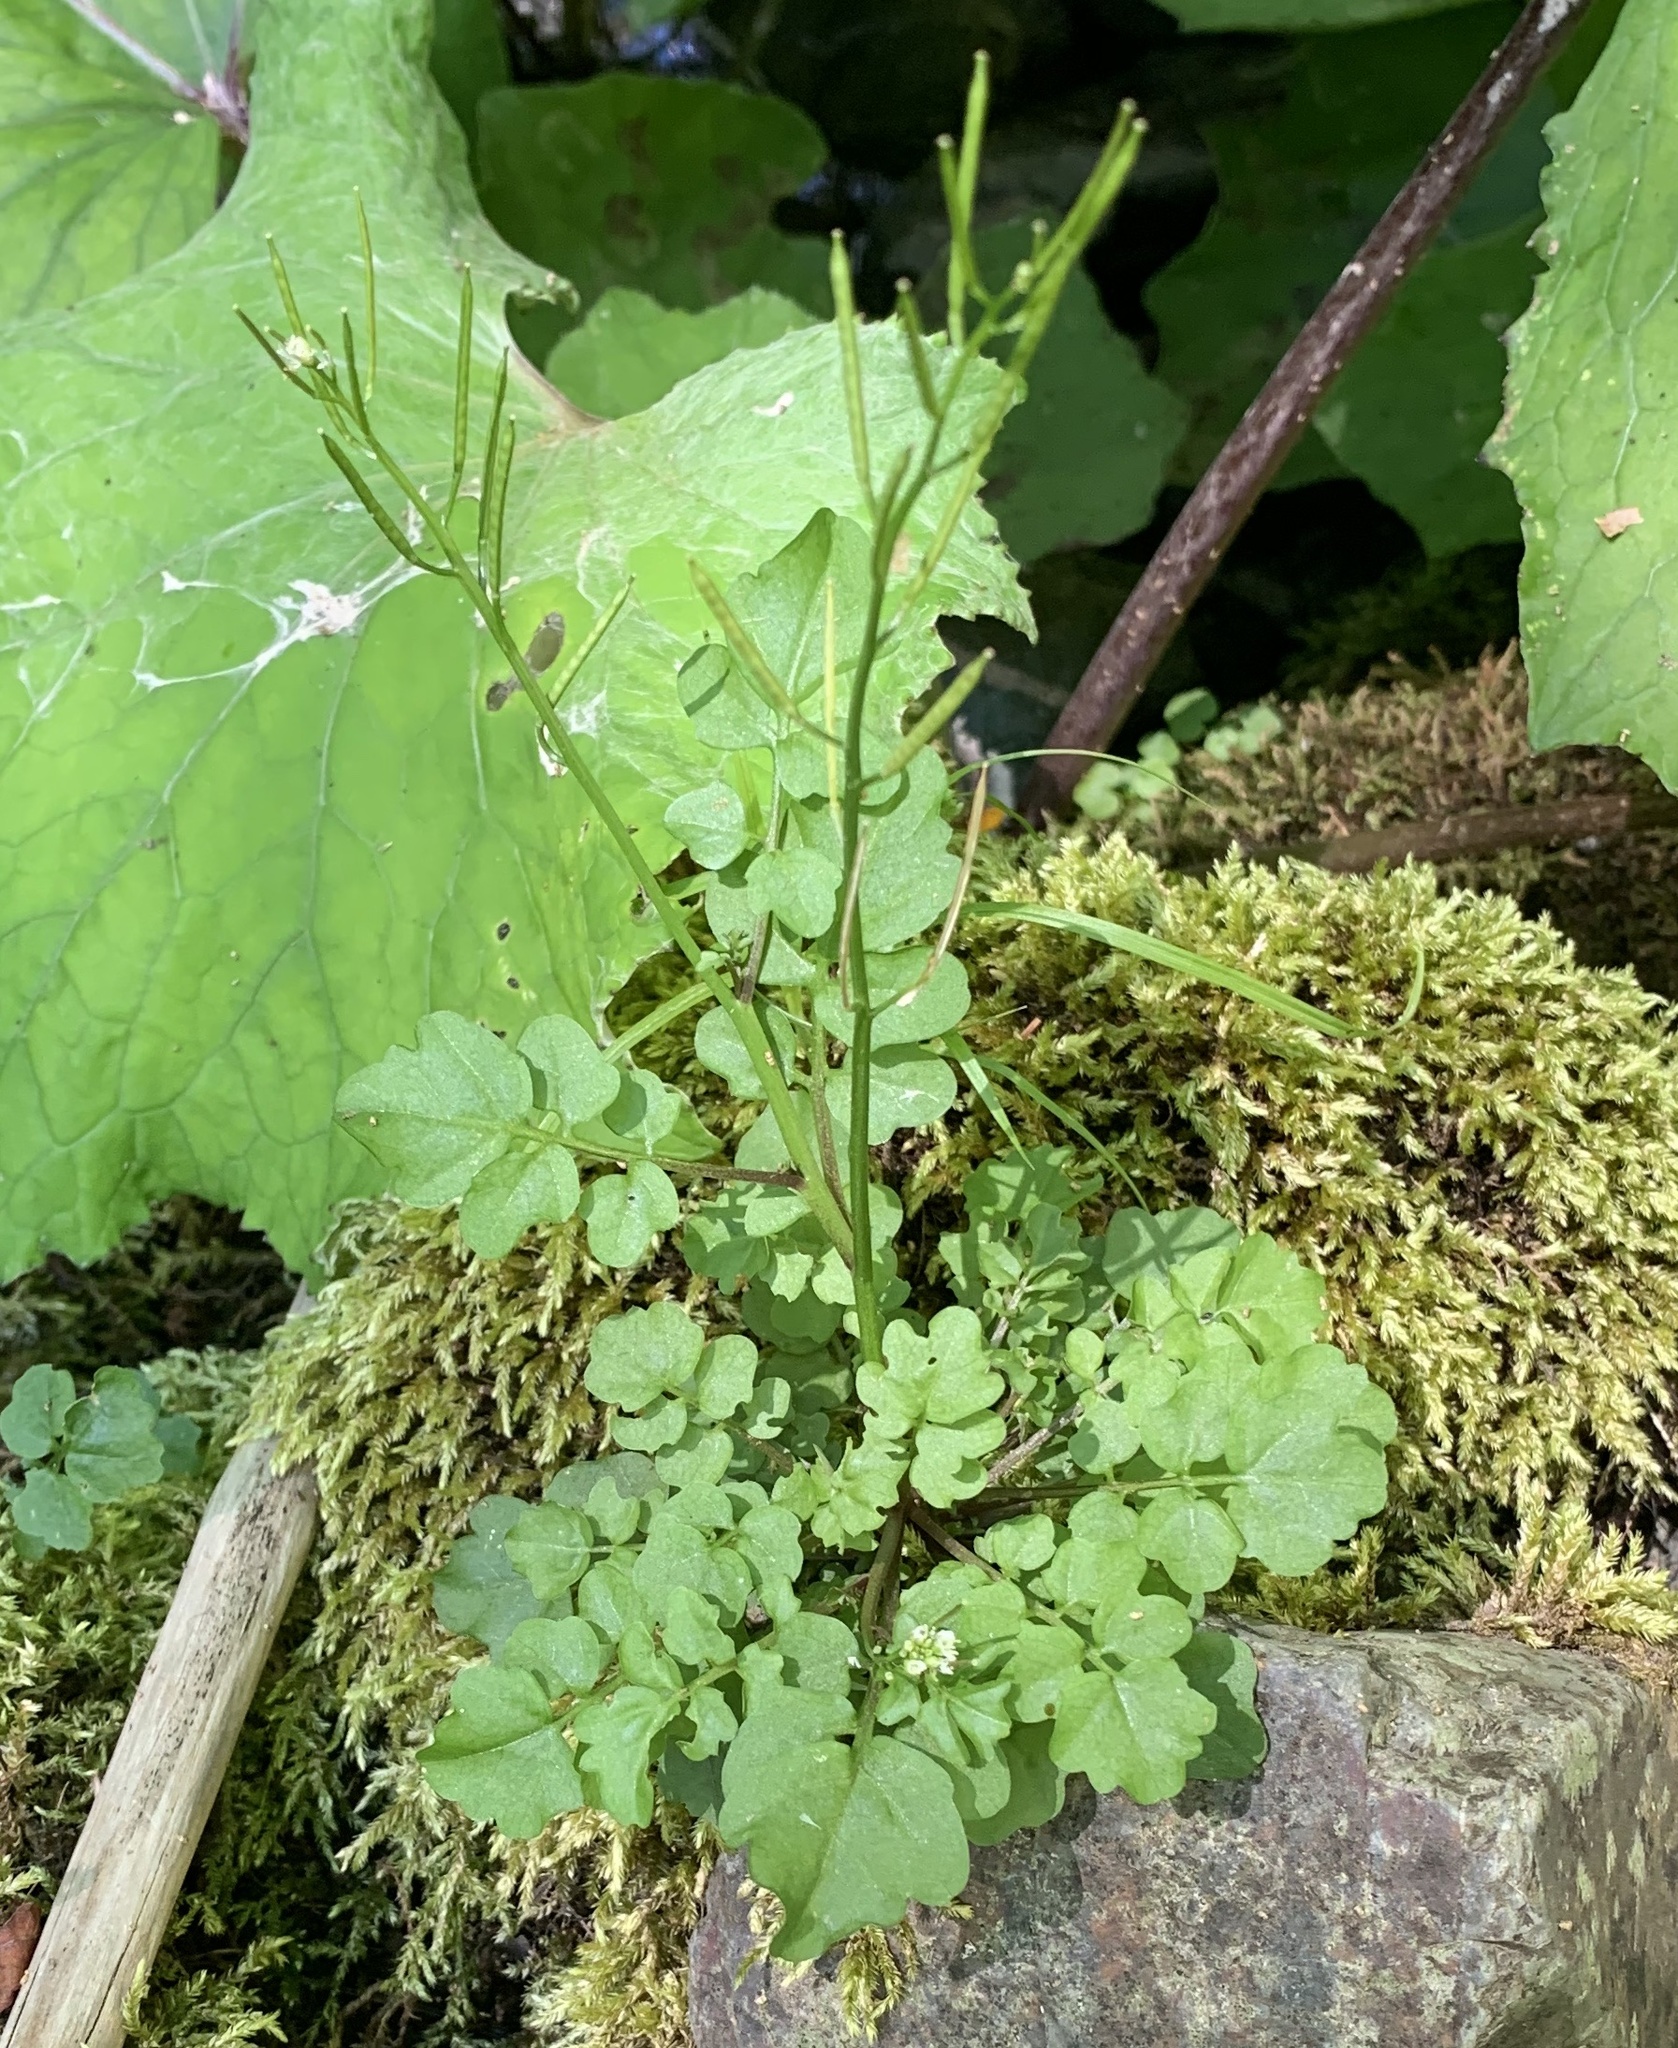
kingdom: Plantae
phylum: Tracheophyta
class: Magnoliopsida
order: Brassicales
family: Brassicaceae
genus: Cardamine
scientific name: Cardamine pensylvanica
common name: Pennsylvania bittercress
